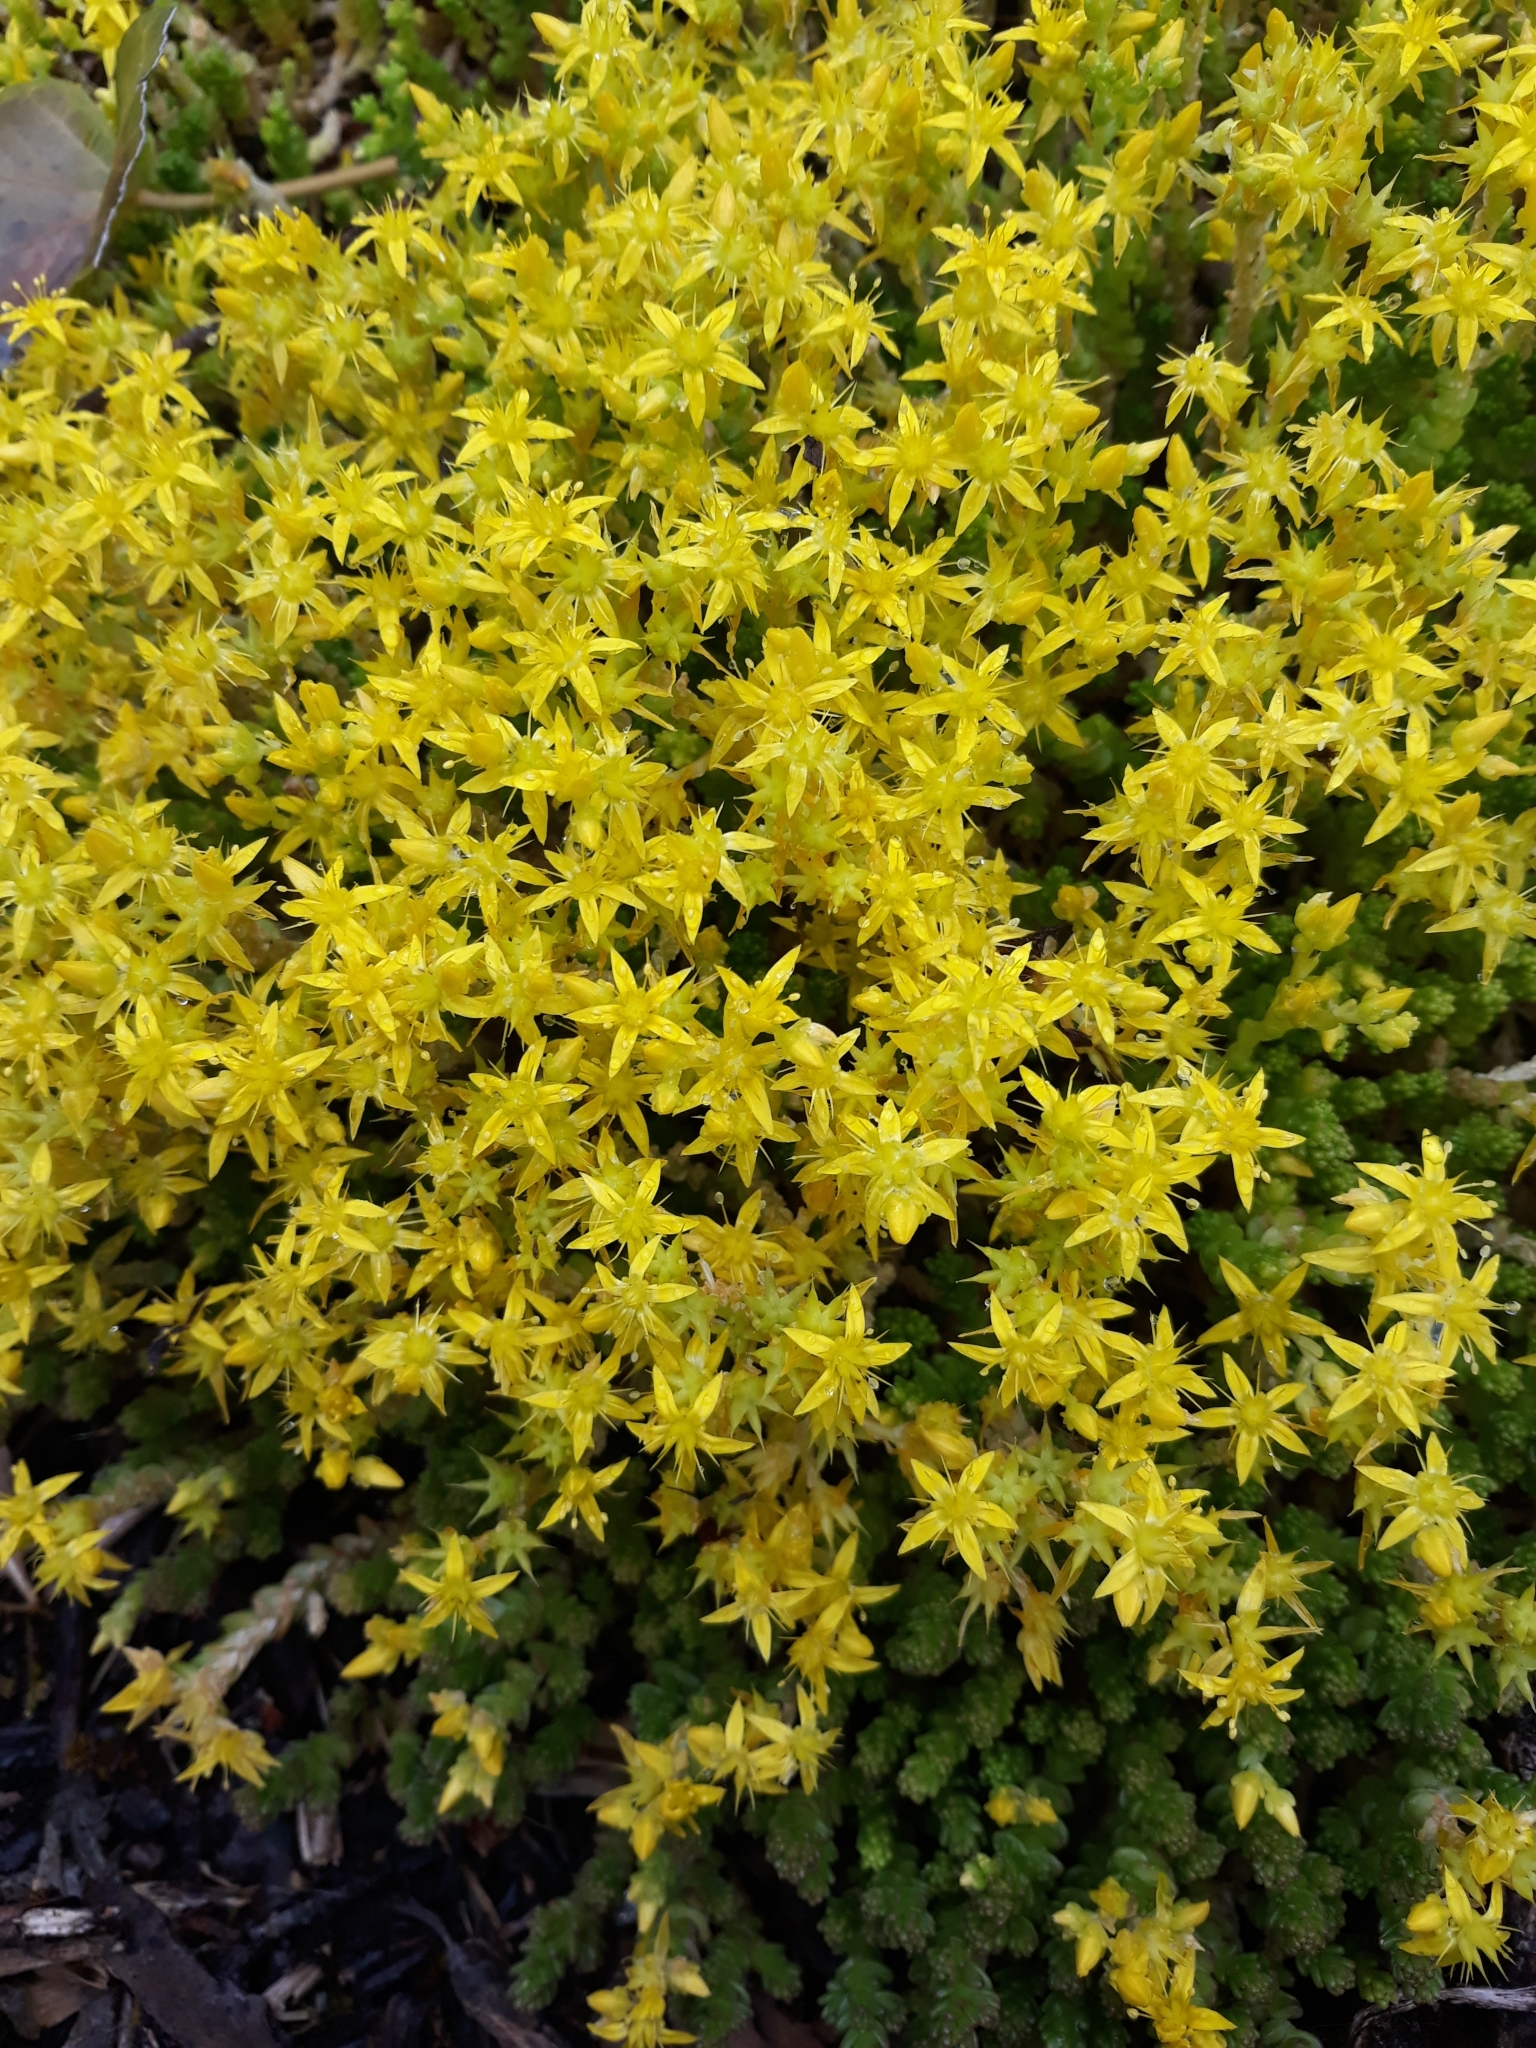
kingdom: Plantae
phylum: Tracheophyta
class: Magnoliopsida
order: Saxifragales
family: Crassulaceae
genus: Sedum
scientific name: Sedum acre
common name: Biting stonecrop
